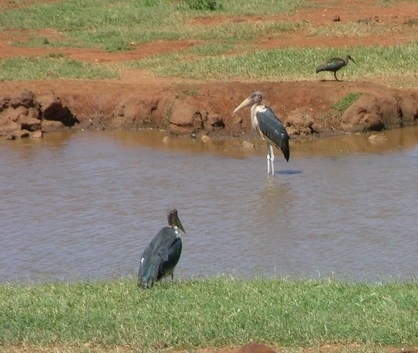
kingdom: Animalia
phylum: Chordata
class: Aves
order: Ciconiiformes
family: Ciconiidae
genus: Leptoptilos
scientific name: Leptoptilos crumenifer
